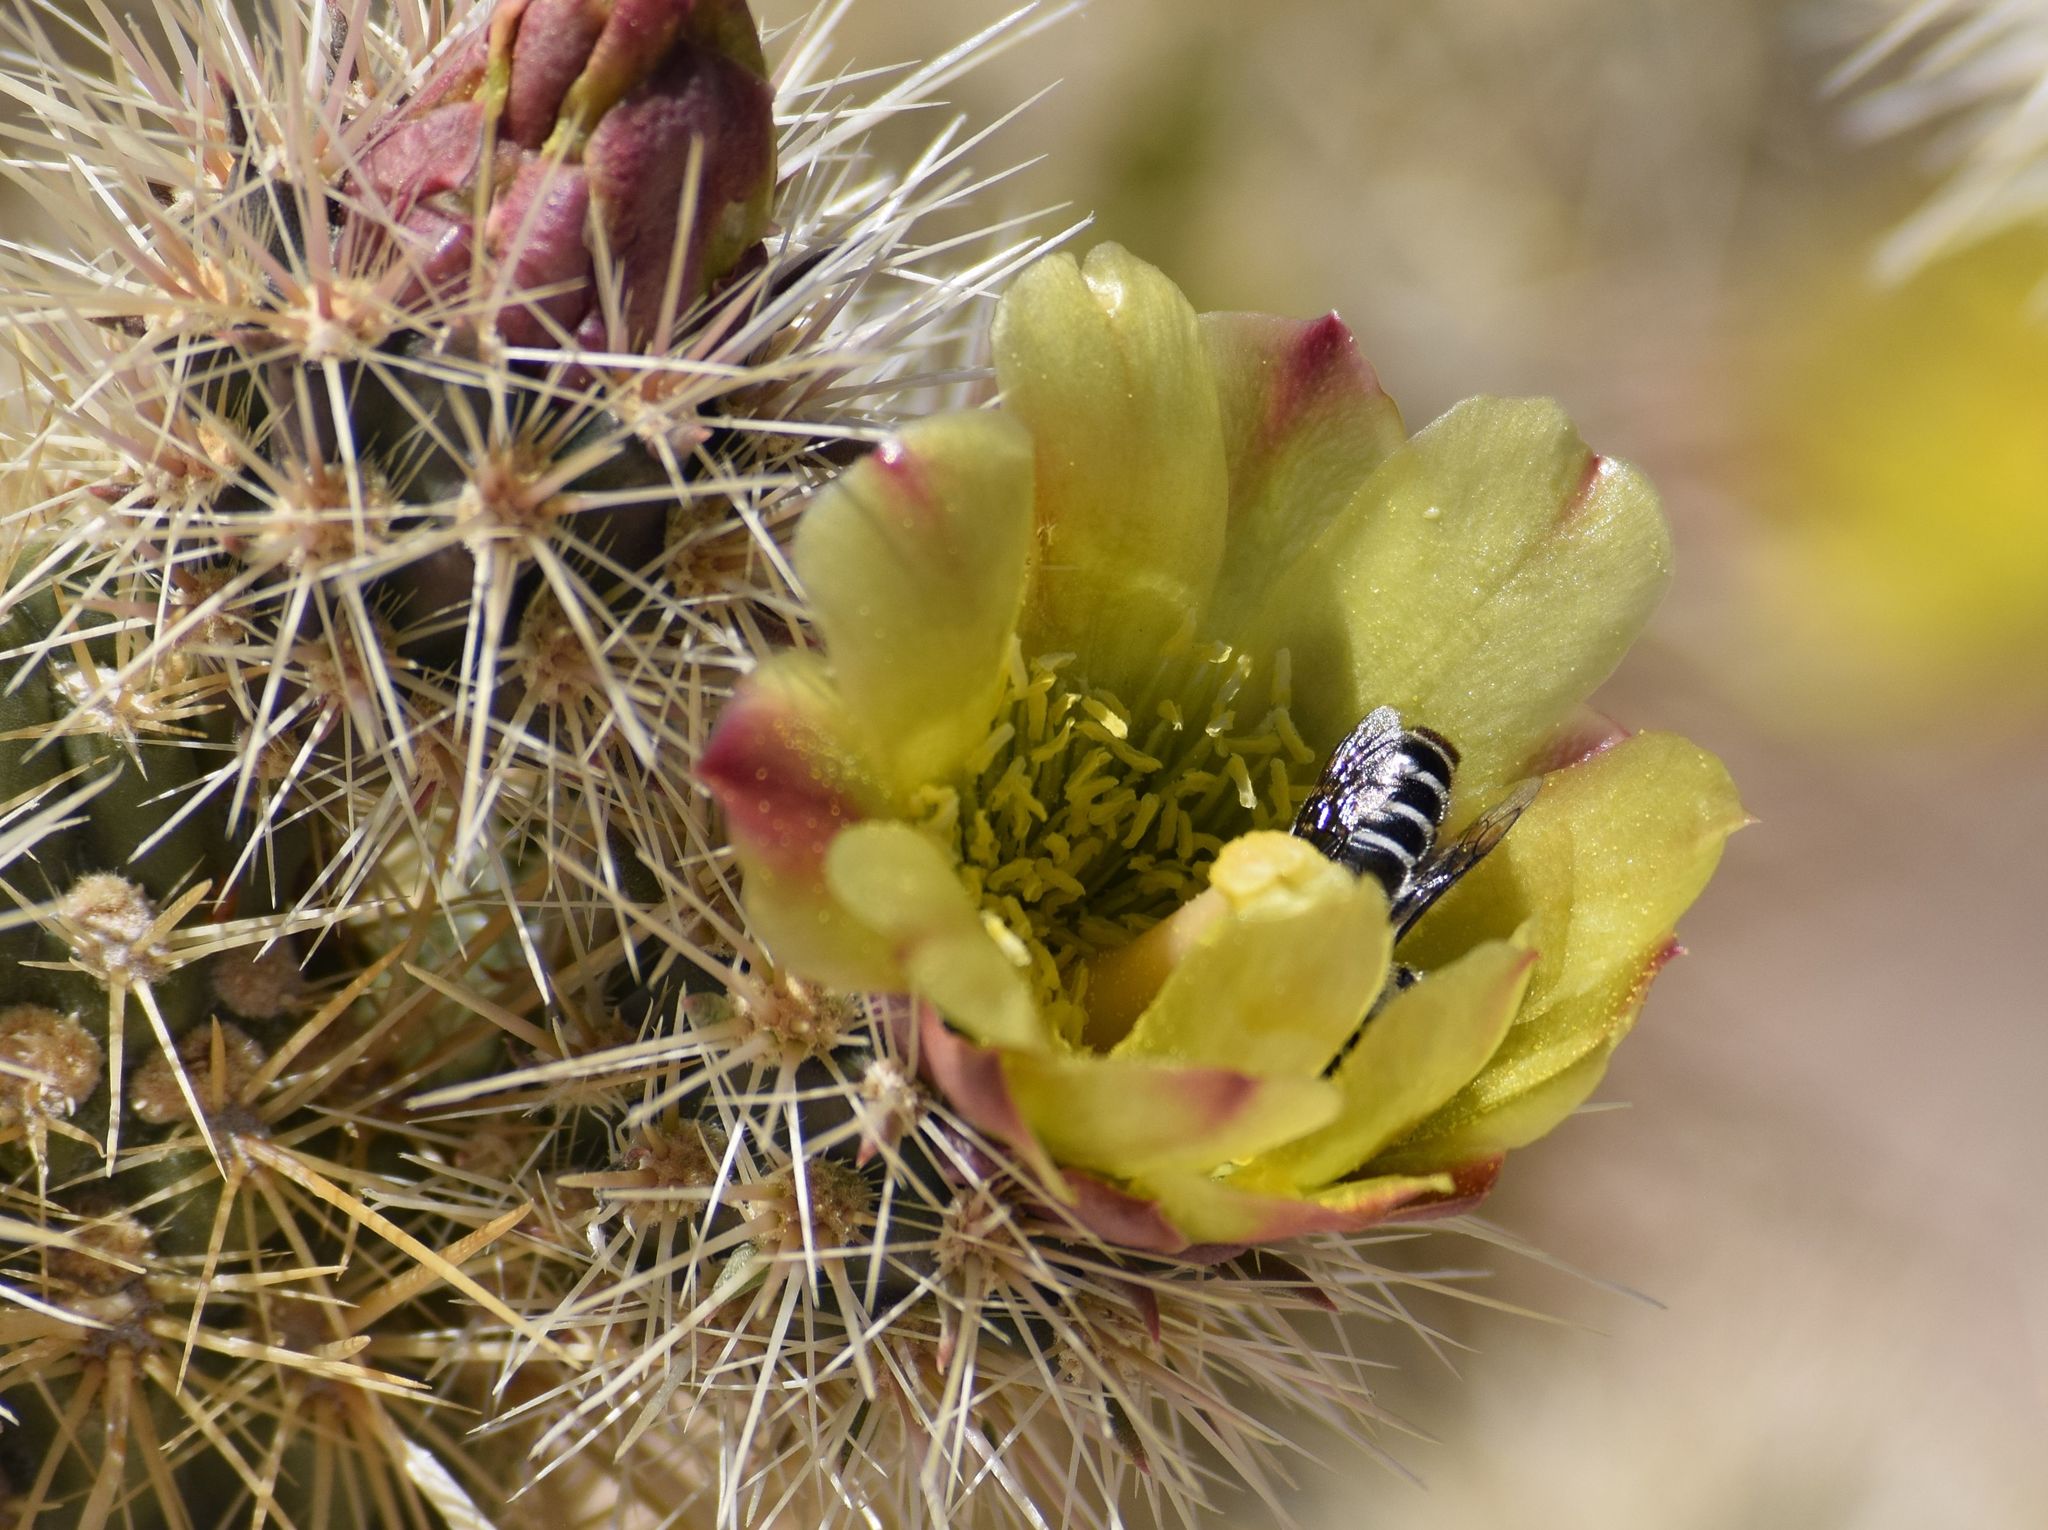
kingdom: Animalia
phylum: Arthropoda
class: Insecta
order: Hymenoptera
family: Megachilidae
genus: Lithurgopsis
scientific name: Lithurgopsis apicalis
